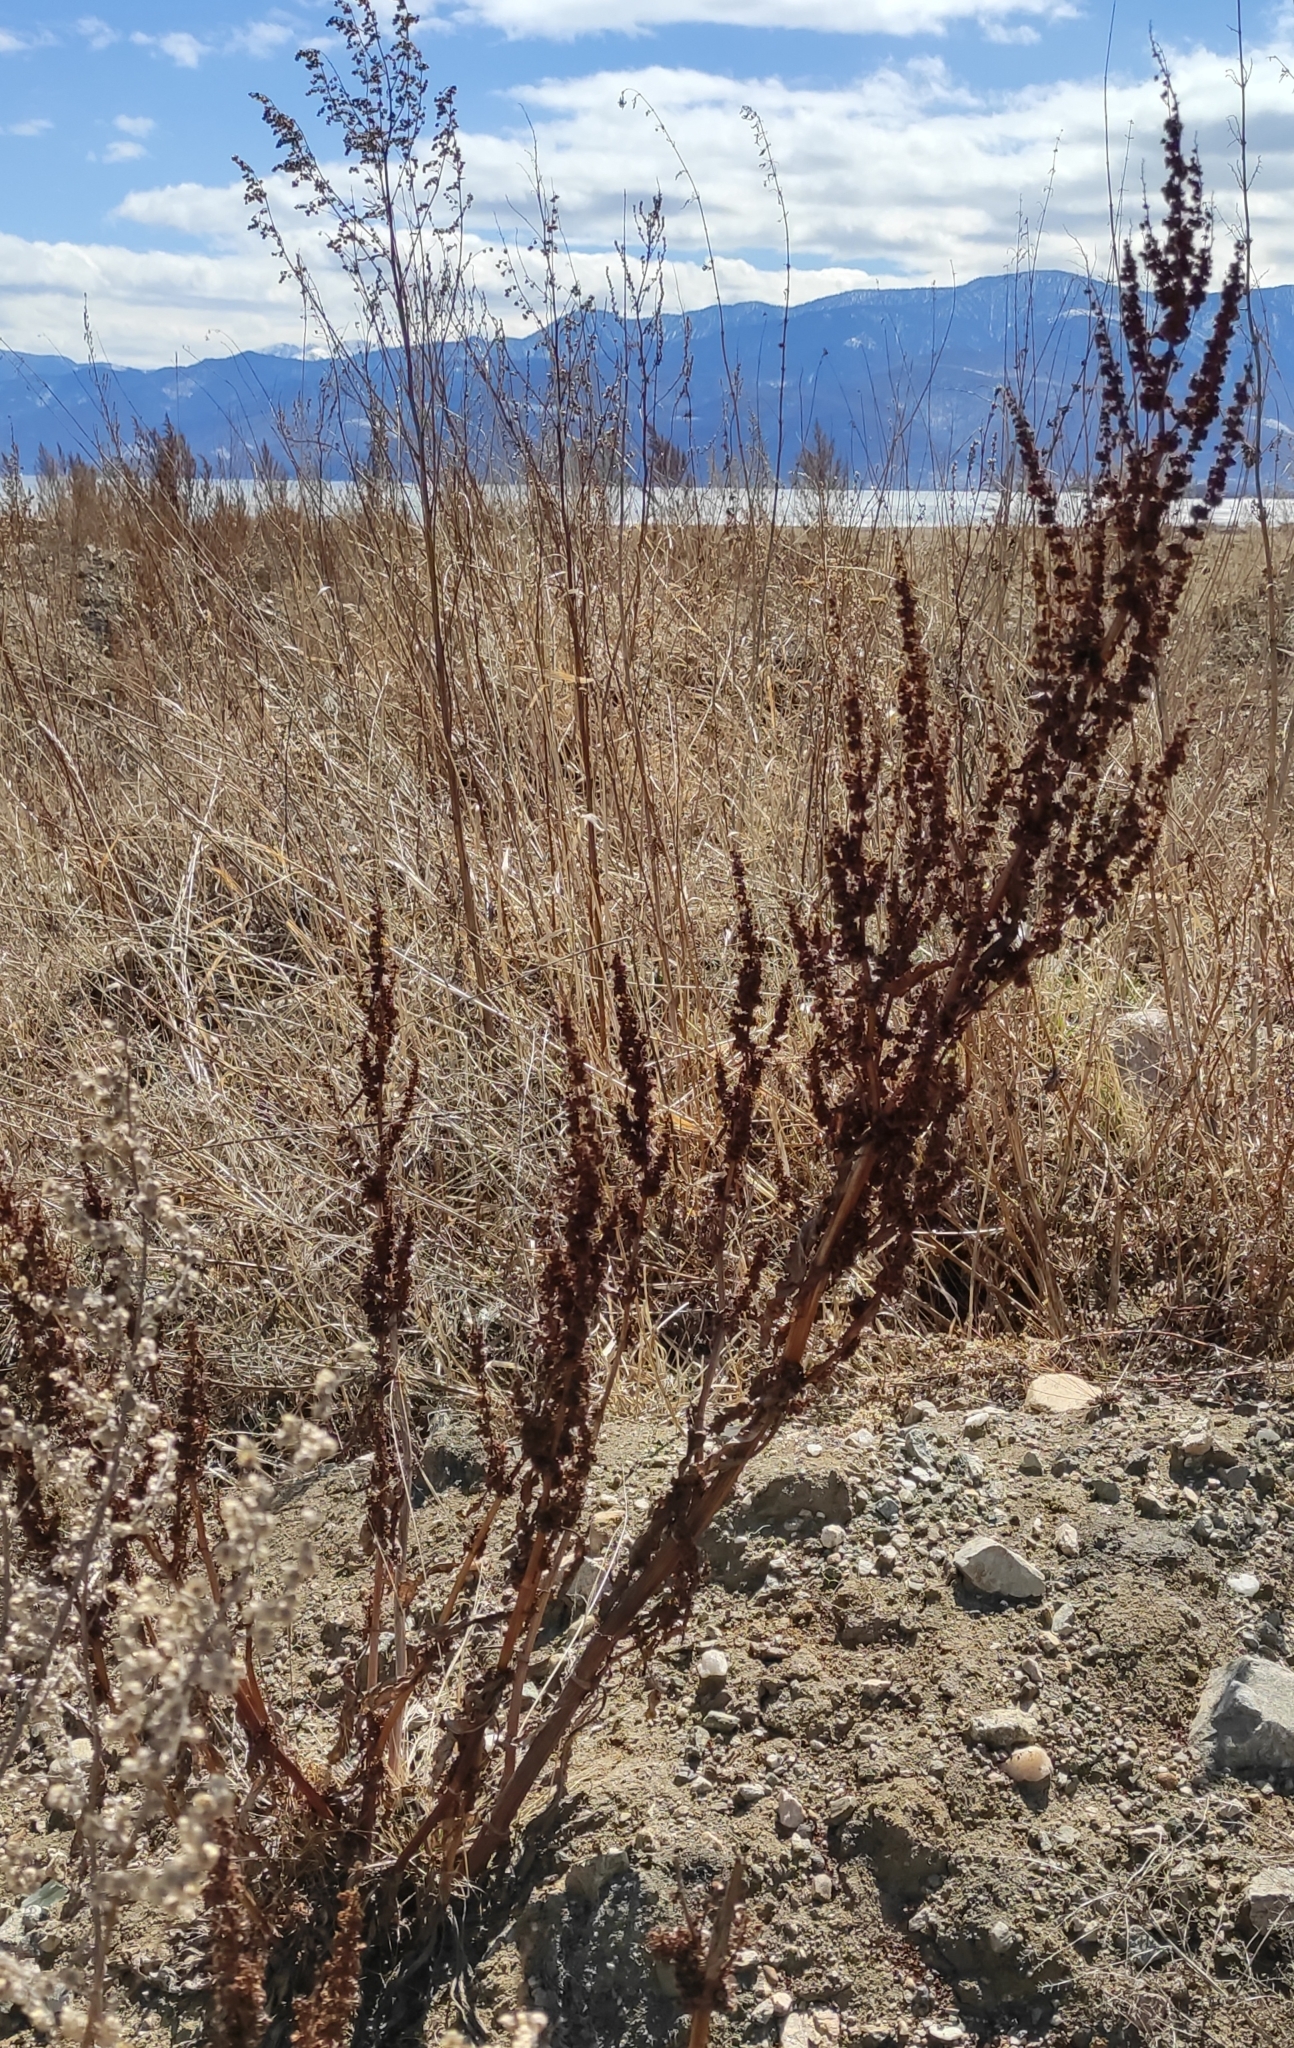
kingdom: Plantae
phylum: Tracheophyta
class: Magnoliopsida
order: Caryophyllales
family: Polygonaceae
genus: Rumex
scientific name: Rumex stenophyllus
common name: Narrowleaf dock
